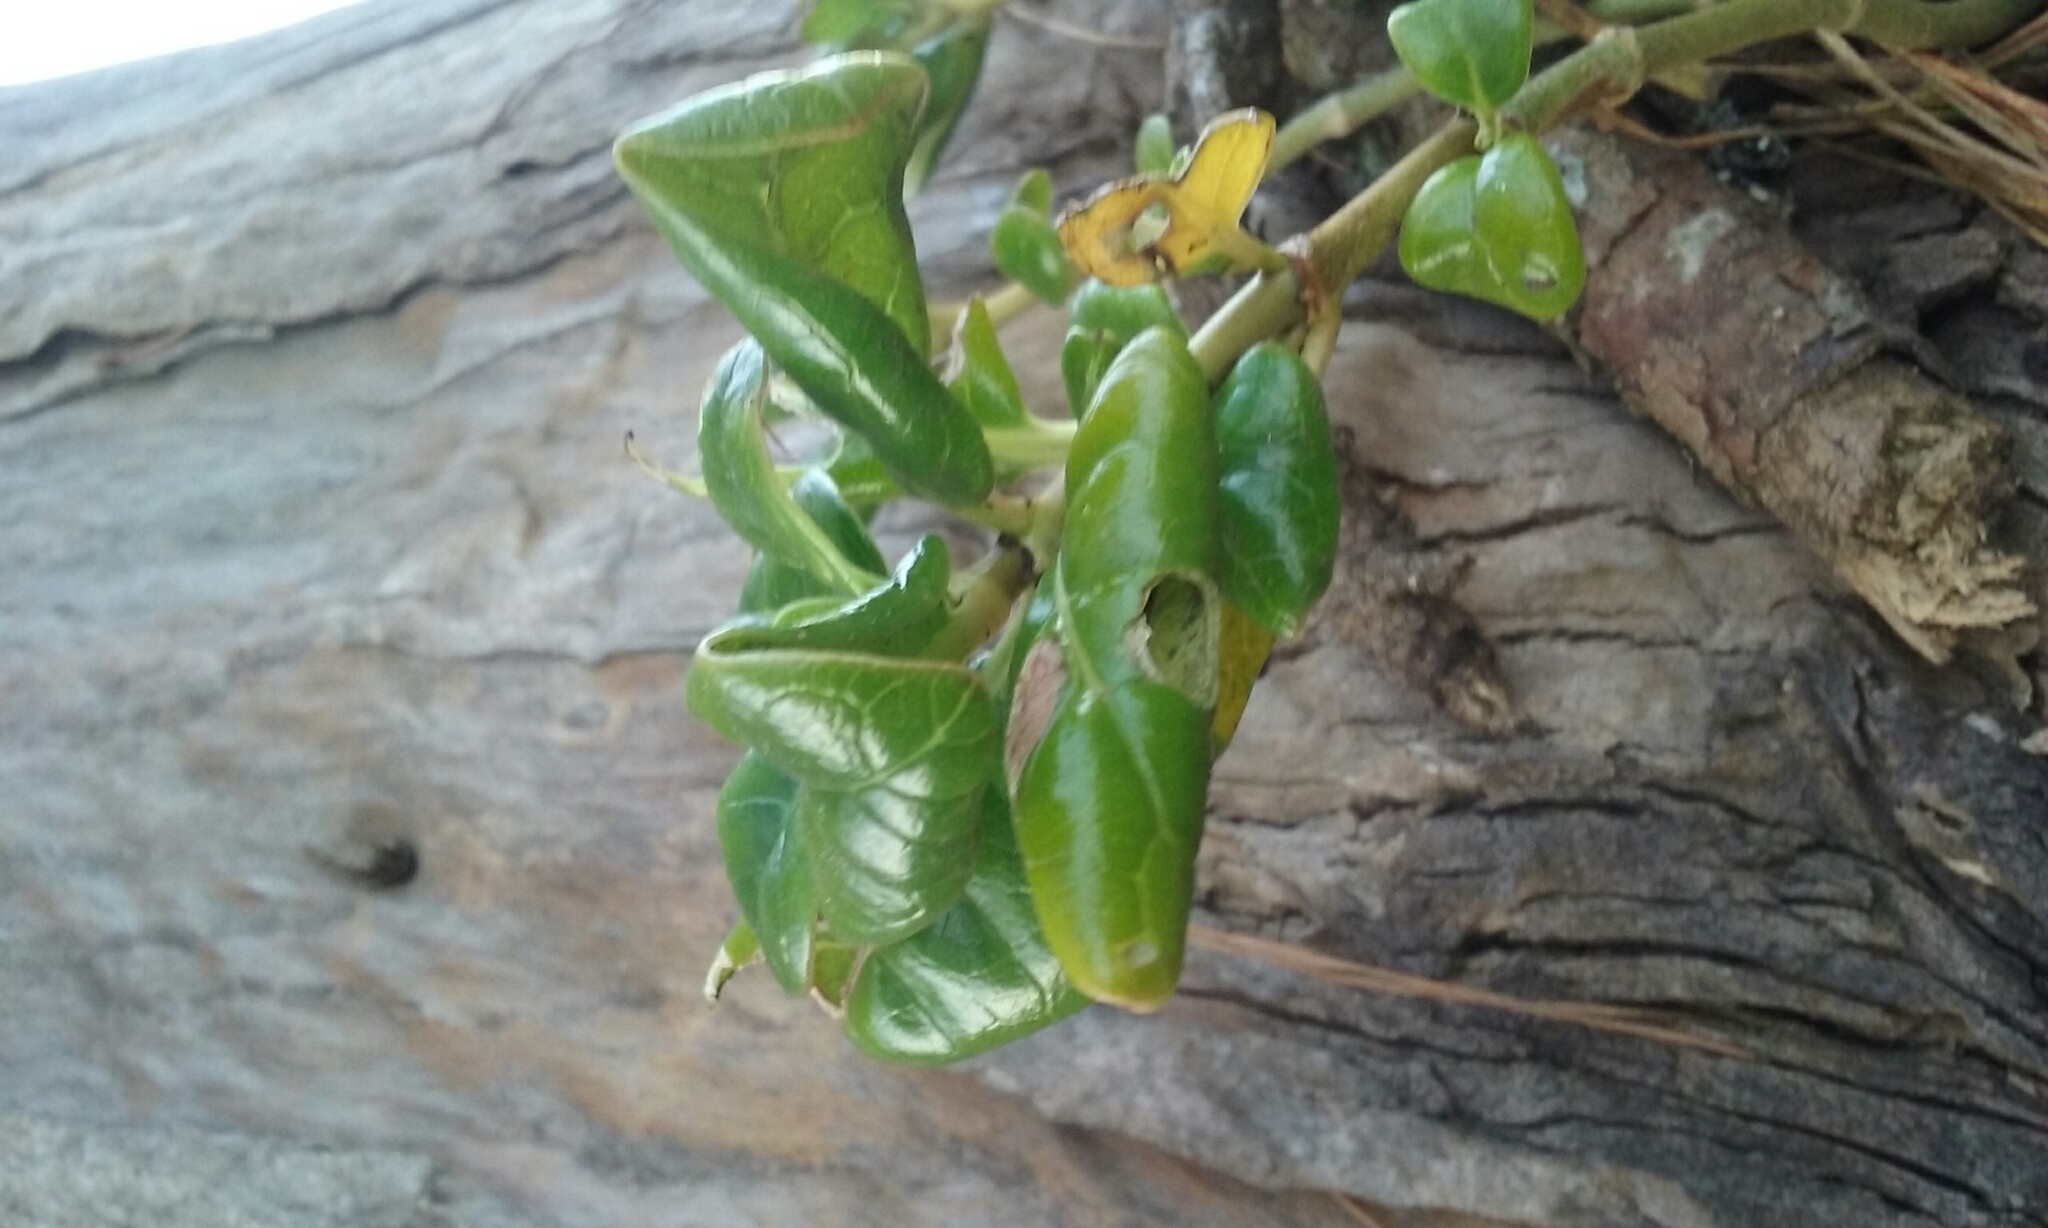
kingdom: Plantae
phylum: Tracheophyta
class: Magnoliopsida
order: Gentianales
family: Rubiaceae
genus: Coprosma
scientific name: Coprosma repens
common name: Tree bedstraw
